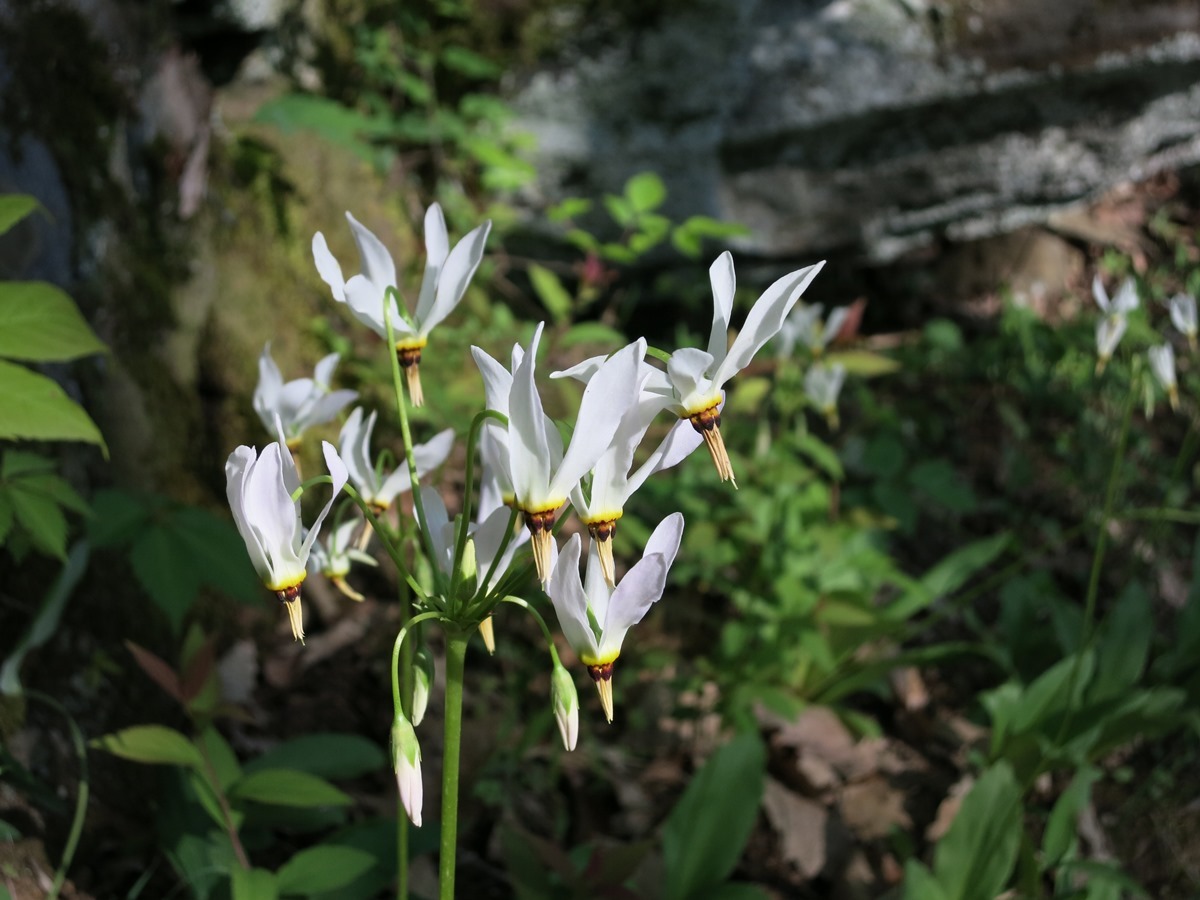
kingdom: Plantae
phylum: Tracheophyta
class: Magnoliopsida
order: Ericales
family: Primulaceae
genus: Dodecatheon
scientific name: Dodecatheon meadia
